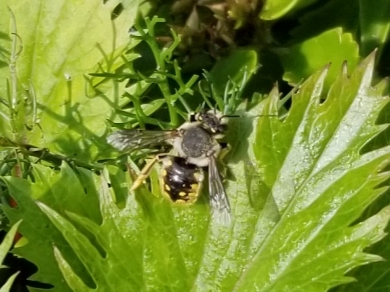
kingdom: Animalia
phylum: Arthropoda
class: Insecta
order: Hymenoptera
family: Megachilidae
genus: Anthidium
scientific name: Anthidium manicatum
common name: Wool carder bee
